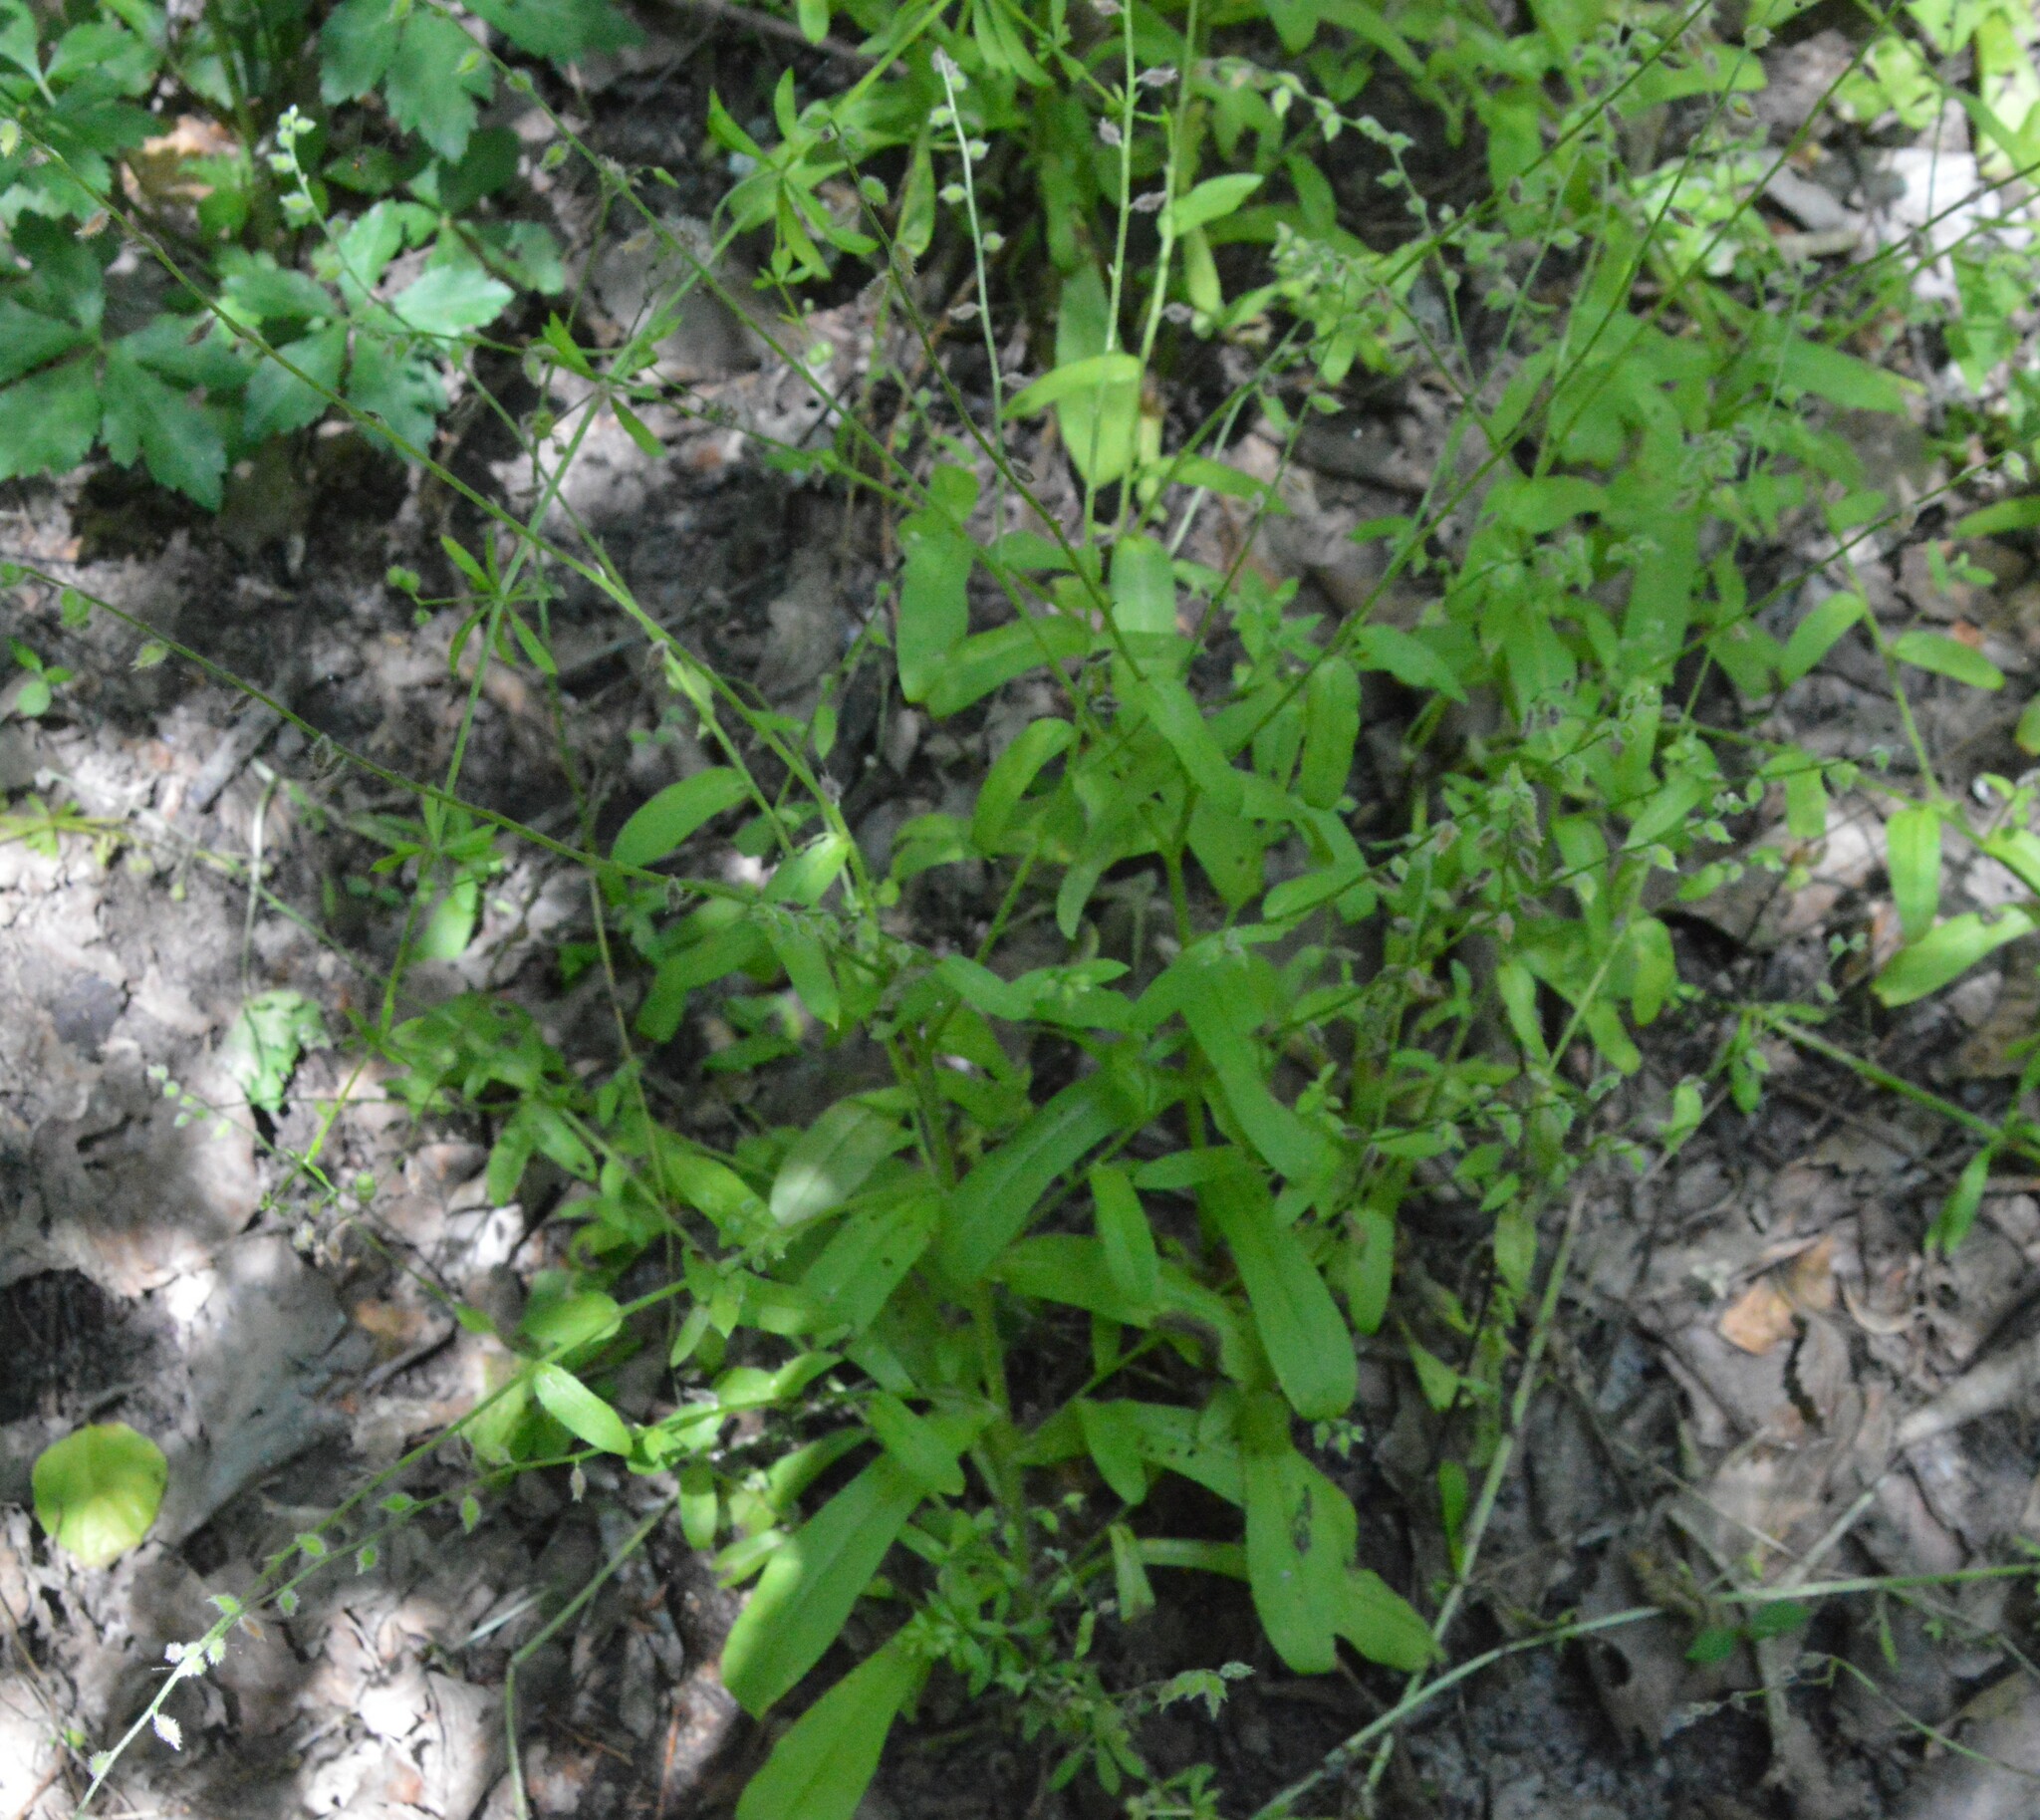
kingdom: Plantae
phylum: Tracheophyta
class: Magnoliopsida
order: Boraginales
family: Boraginaceae
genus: Myosotis
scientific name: Myosotis macrosperma
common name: Large-seed forget-me-not
